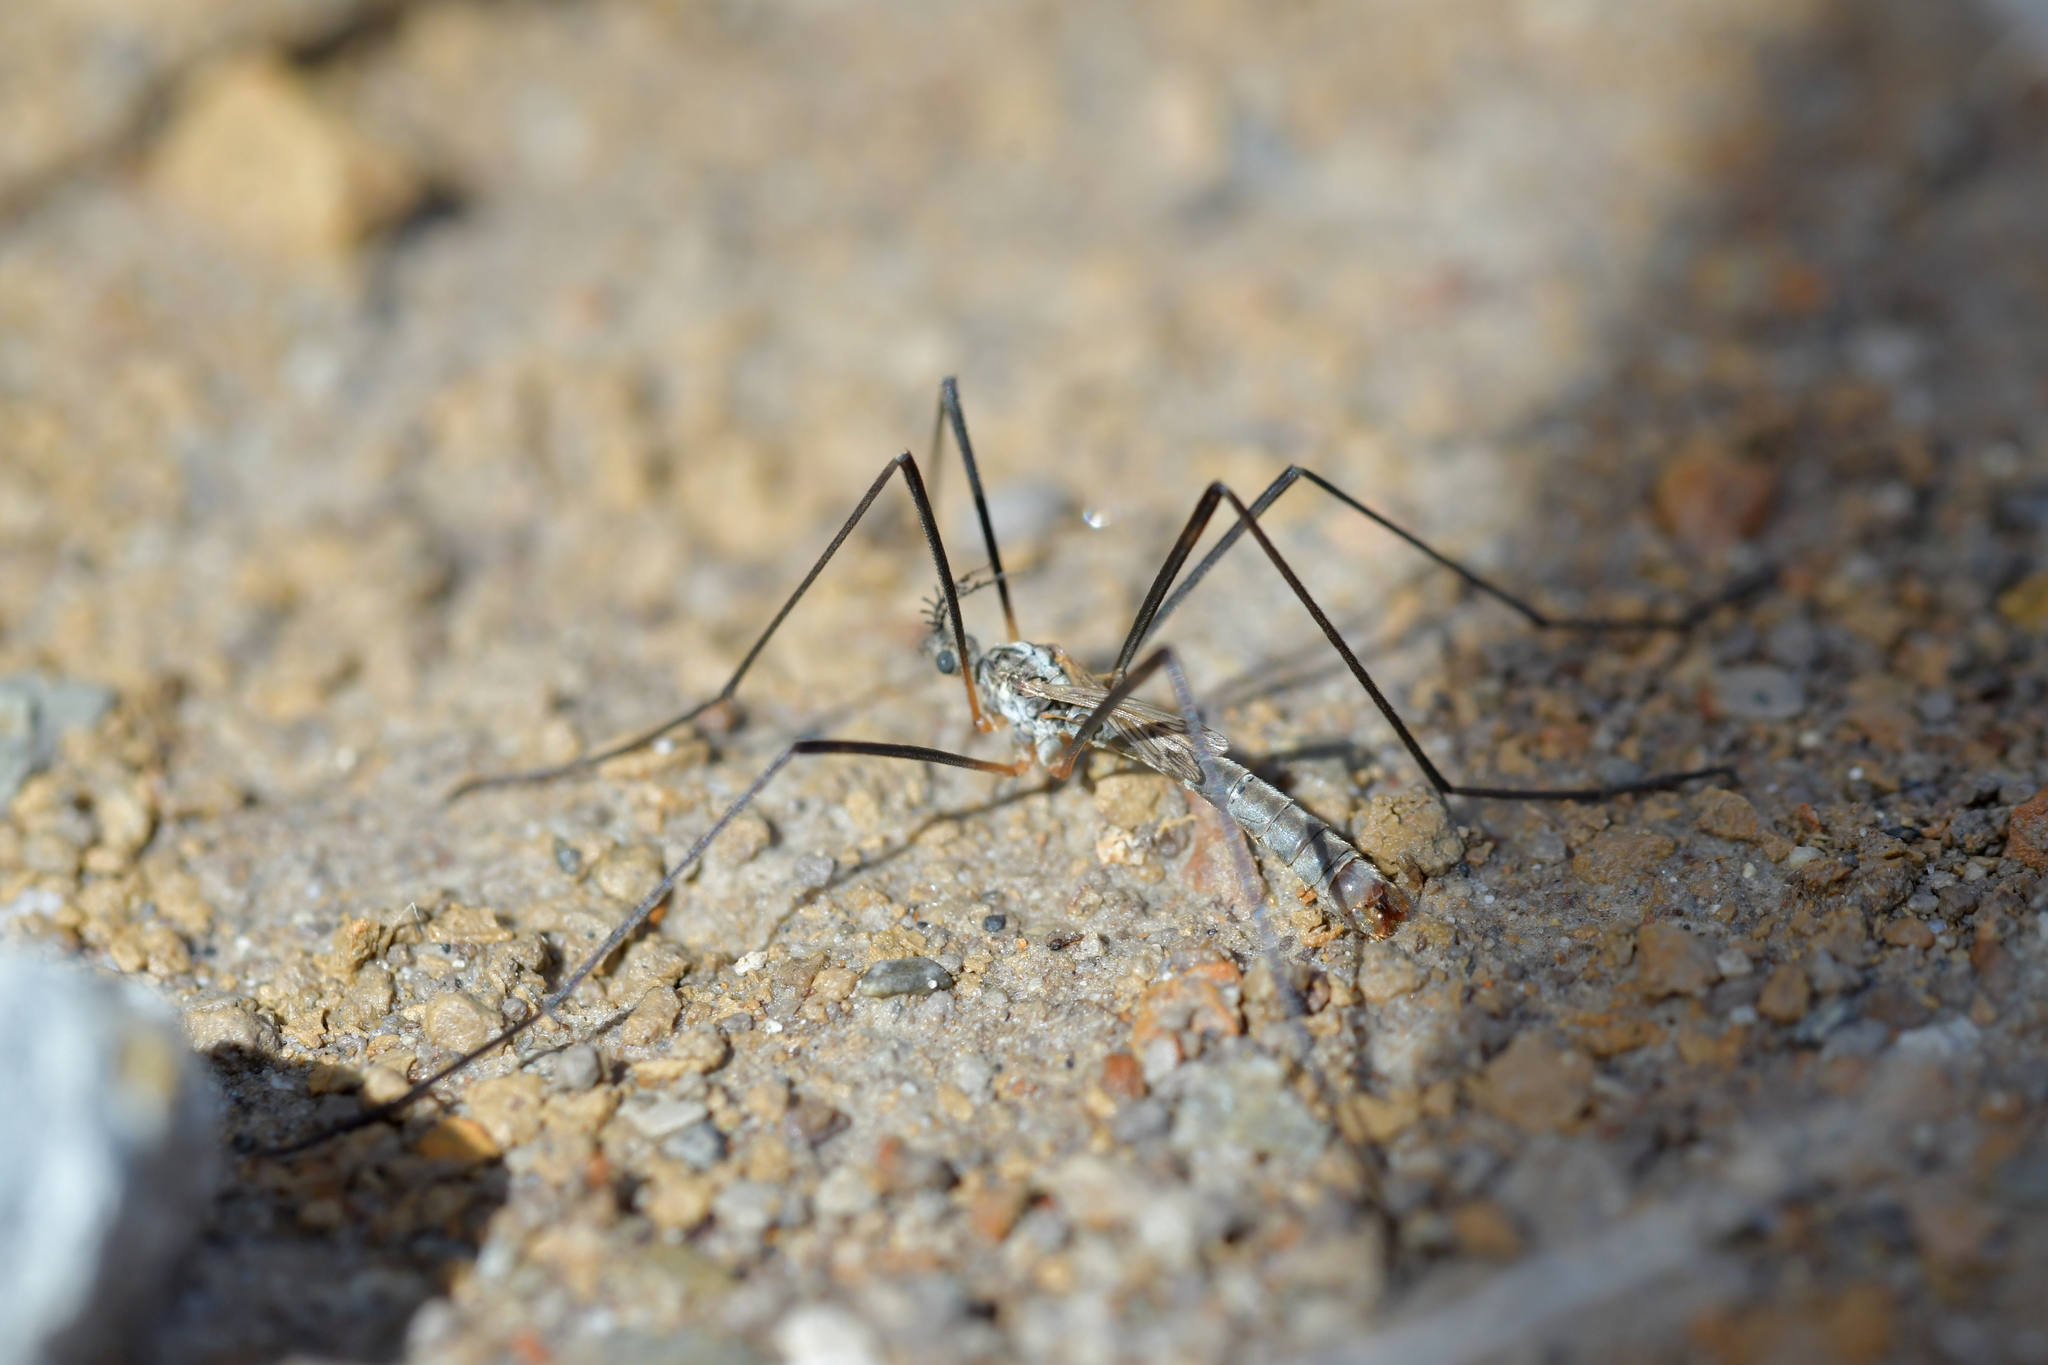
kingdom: Animalia
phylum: Arthropoda
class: Insecta
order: Diptera
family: Limoniidae
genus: Gynoplistia
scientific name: Gynoplistia clarkeana
